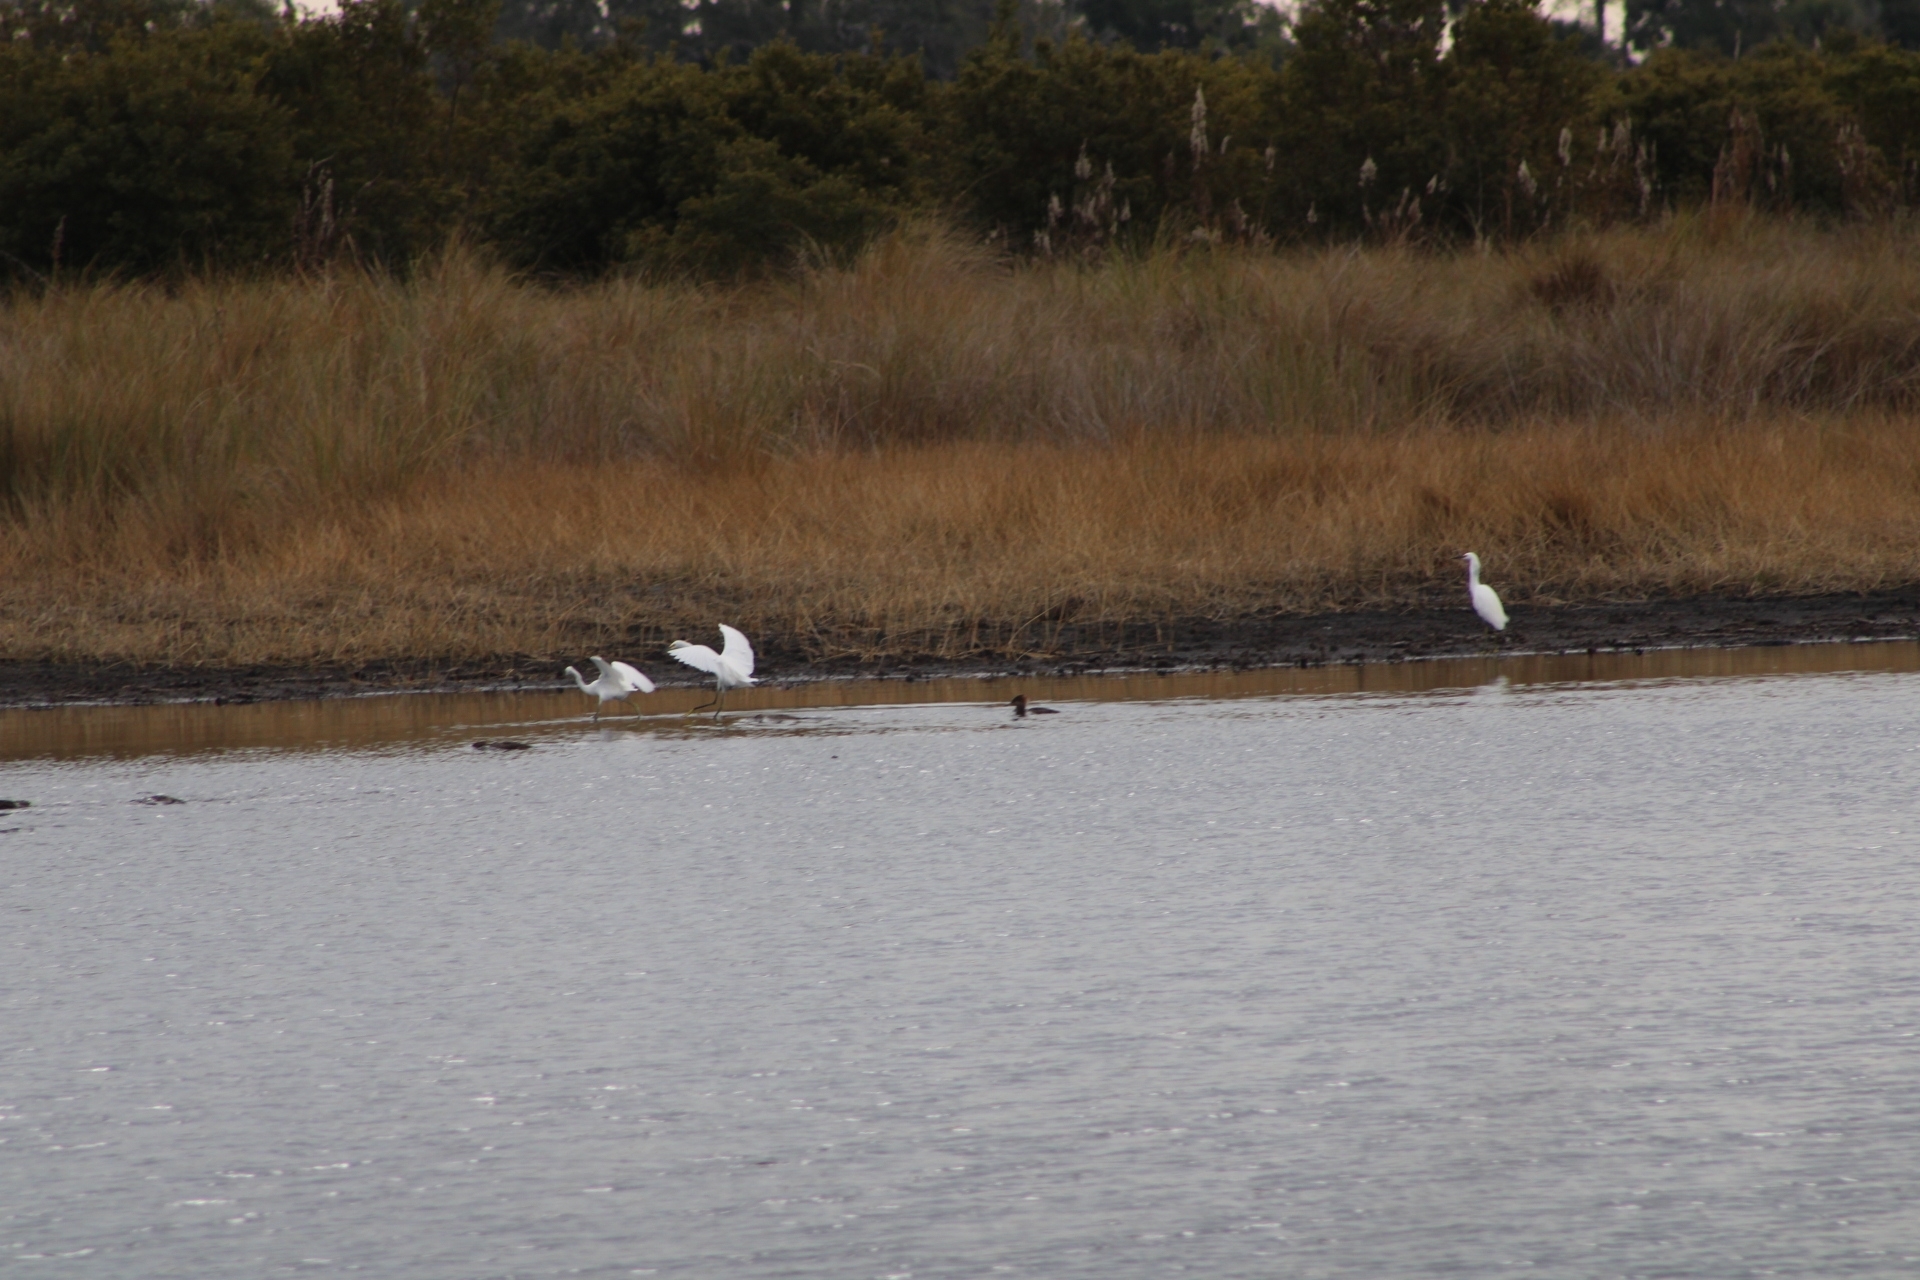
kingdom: Animalia
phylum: Chordata
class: Aves
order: Pelecaniformes
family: Ardeidae
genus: Ardea
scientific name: Ardea alba
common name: Great egret
